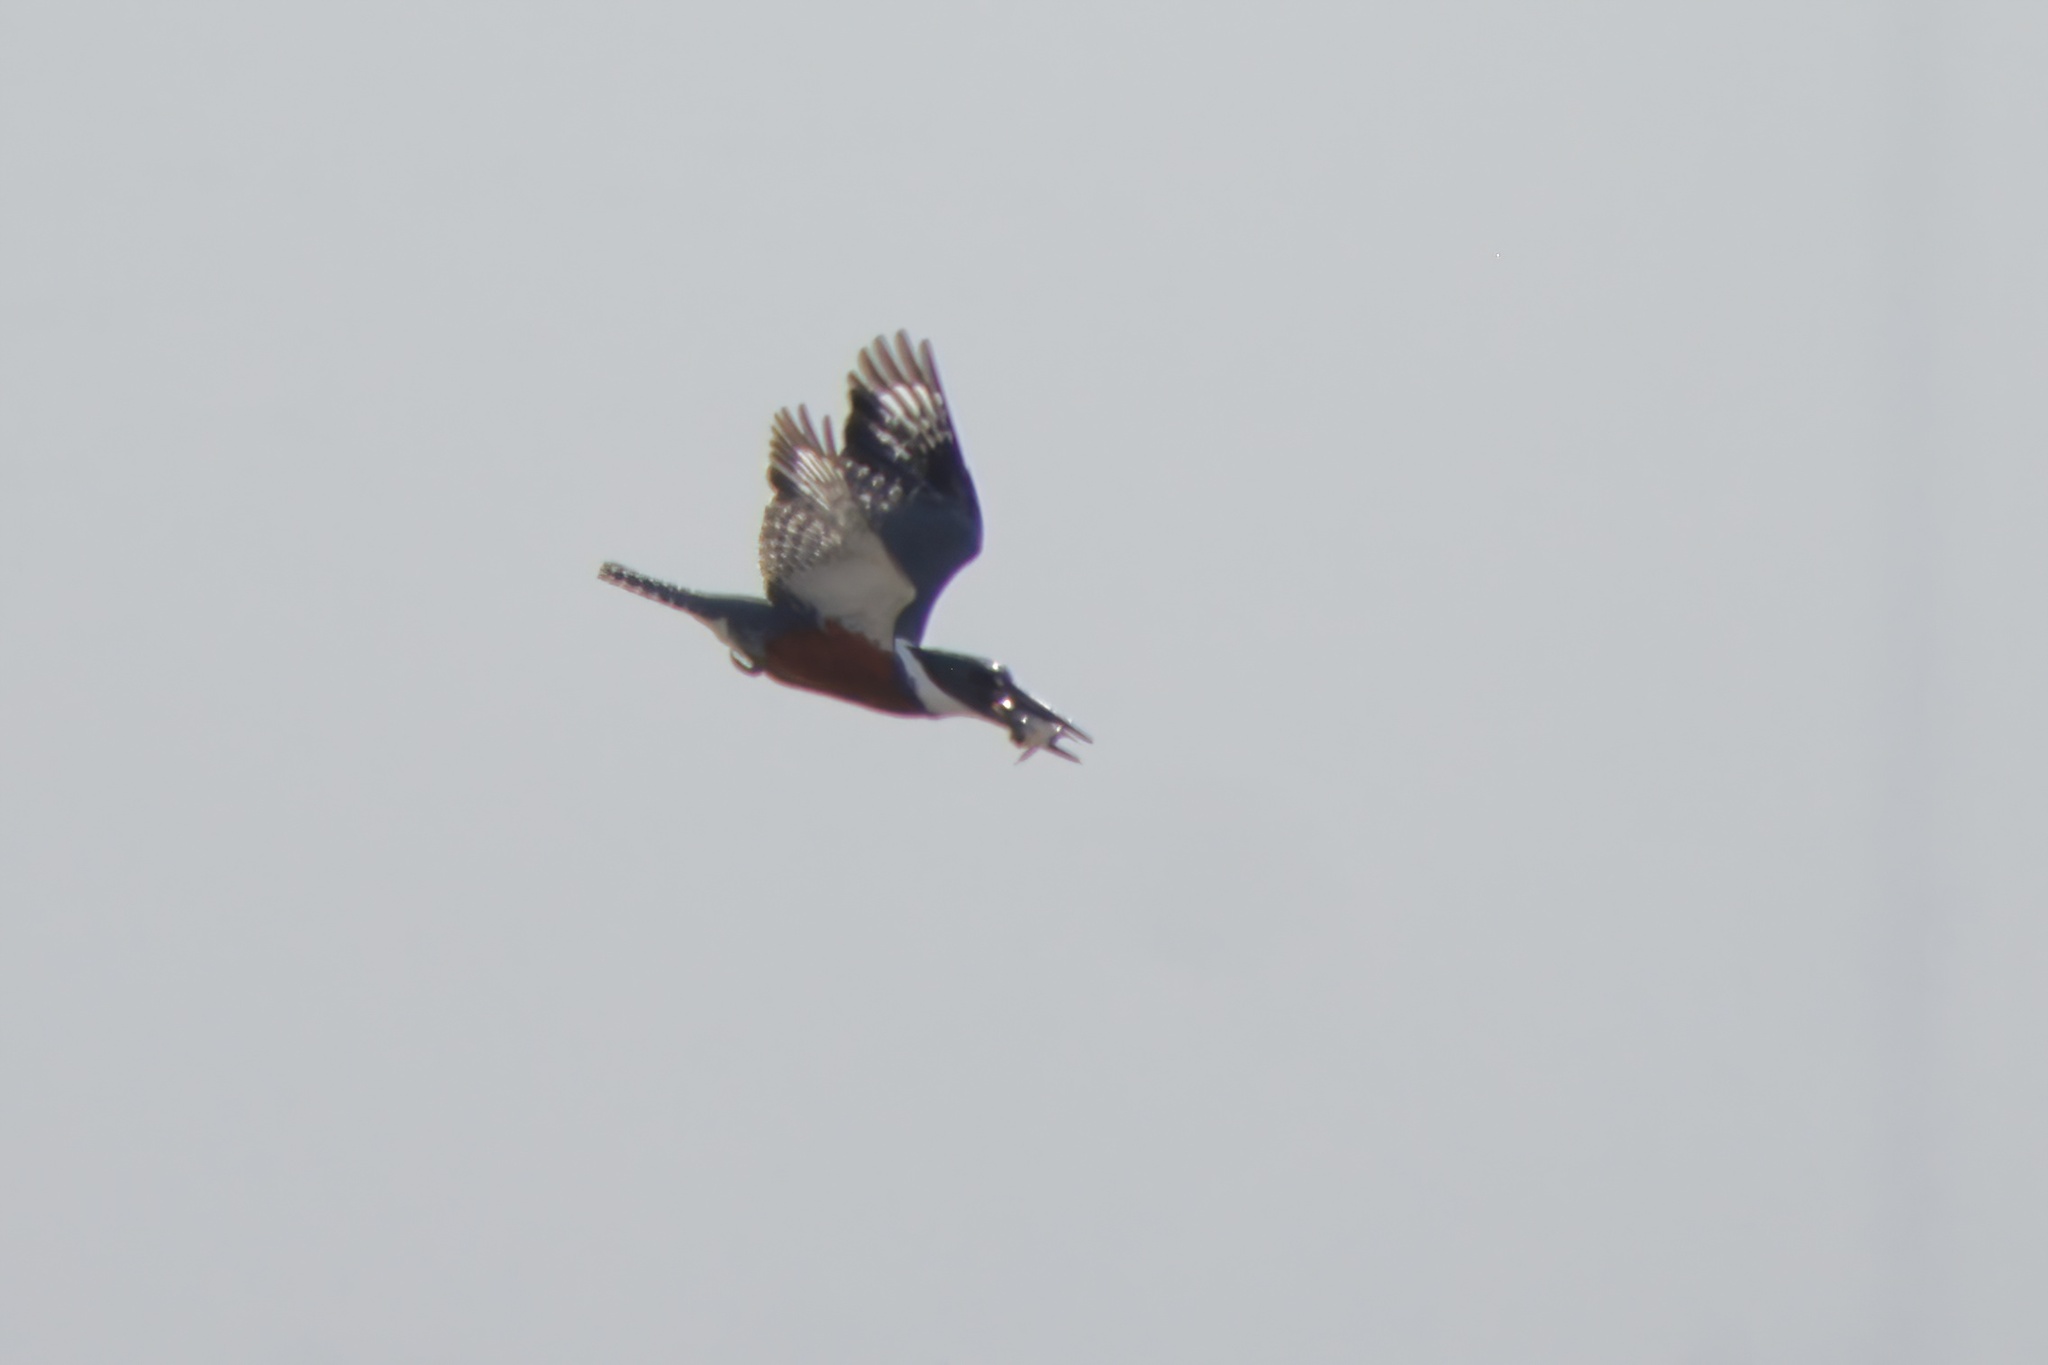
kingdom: Animalia
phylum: Chordata
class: Aves
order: Coraciiformes
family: Alcedinidae
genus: Megaceryle
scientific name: Megaceryle torquata
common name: Ringed kingfisher
